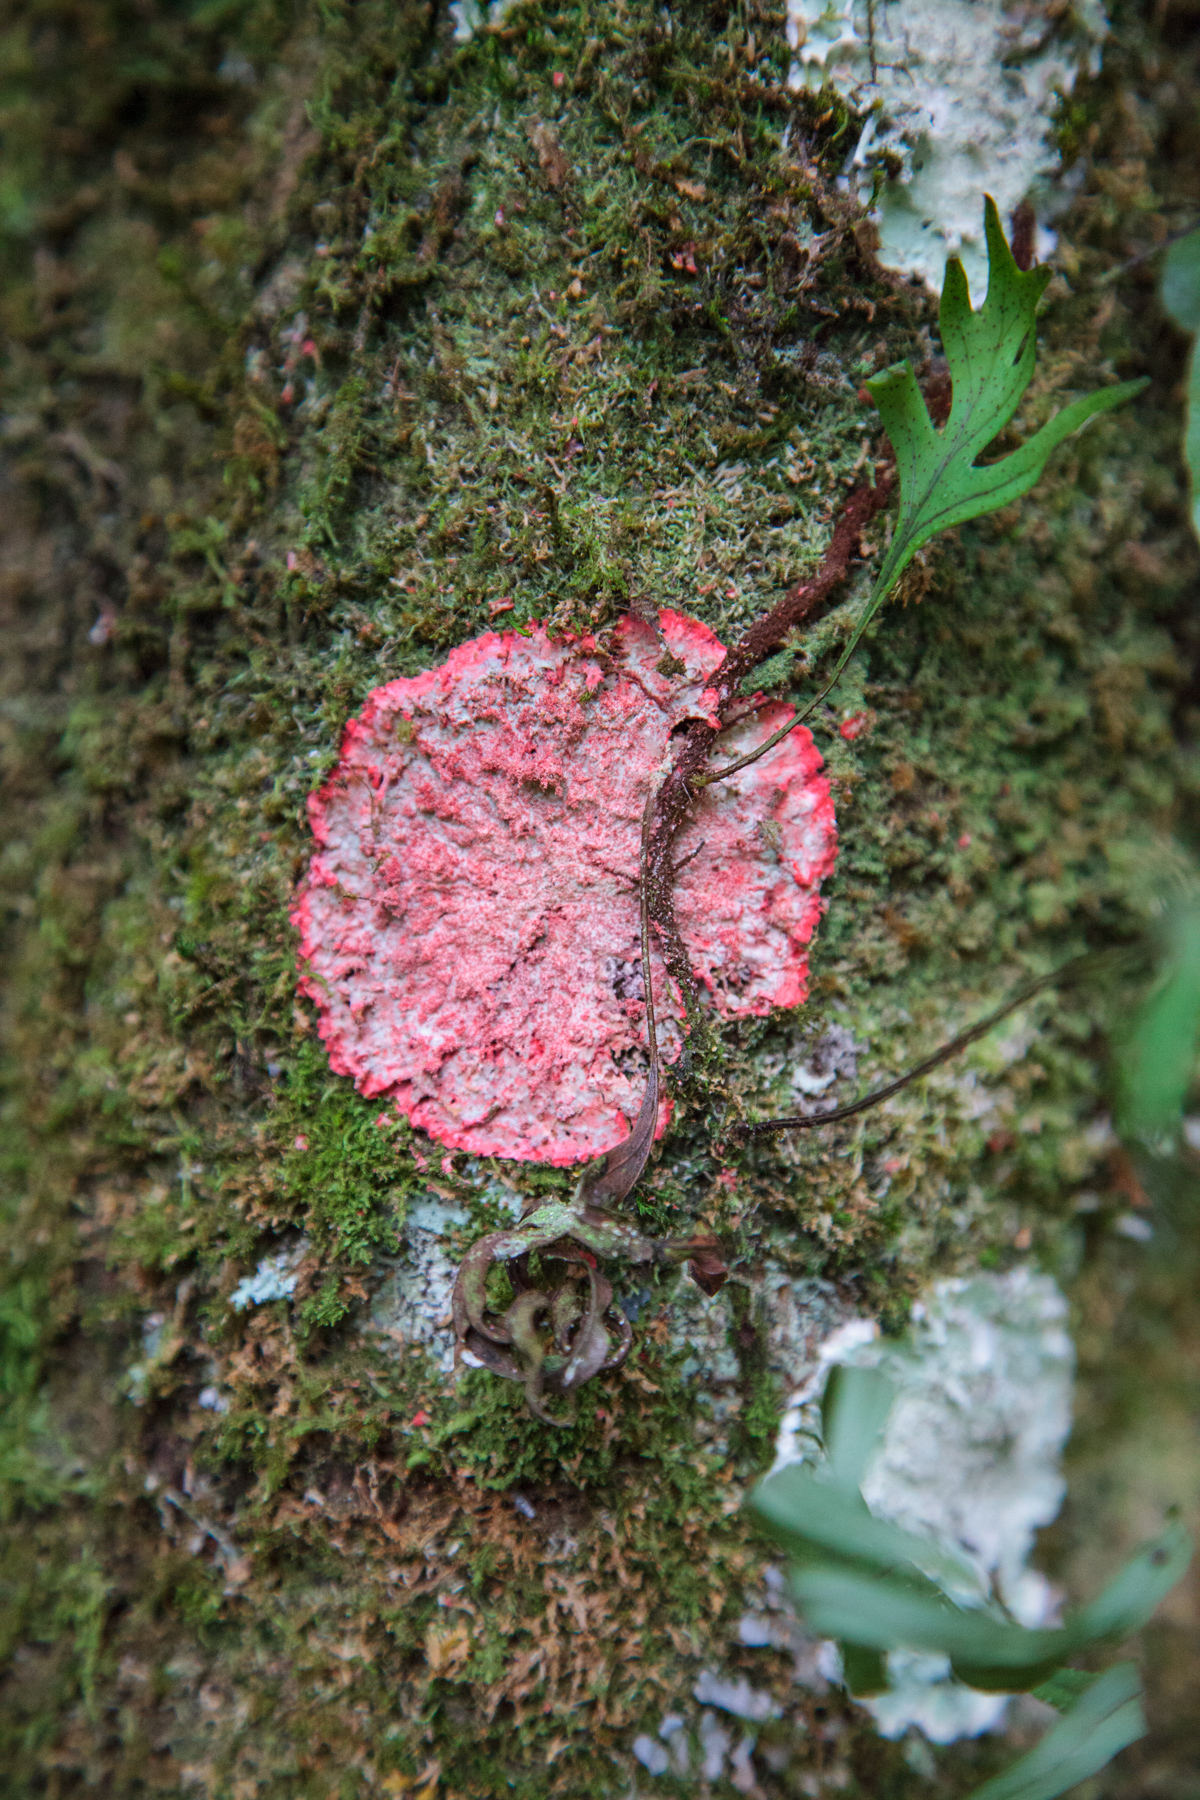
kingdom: Fungi
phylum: Ascomycota
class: Arthoniomycetes
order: Arthoniales
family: Arthoniaceae
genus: Herpothallon
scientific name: Herpothallon rubrocinctum
